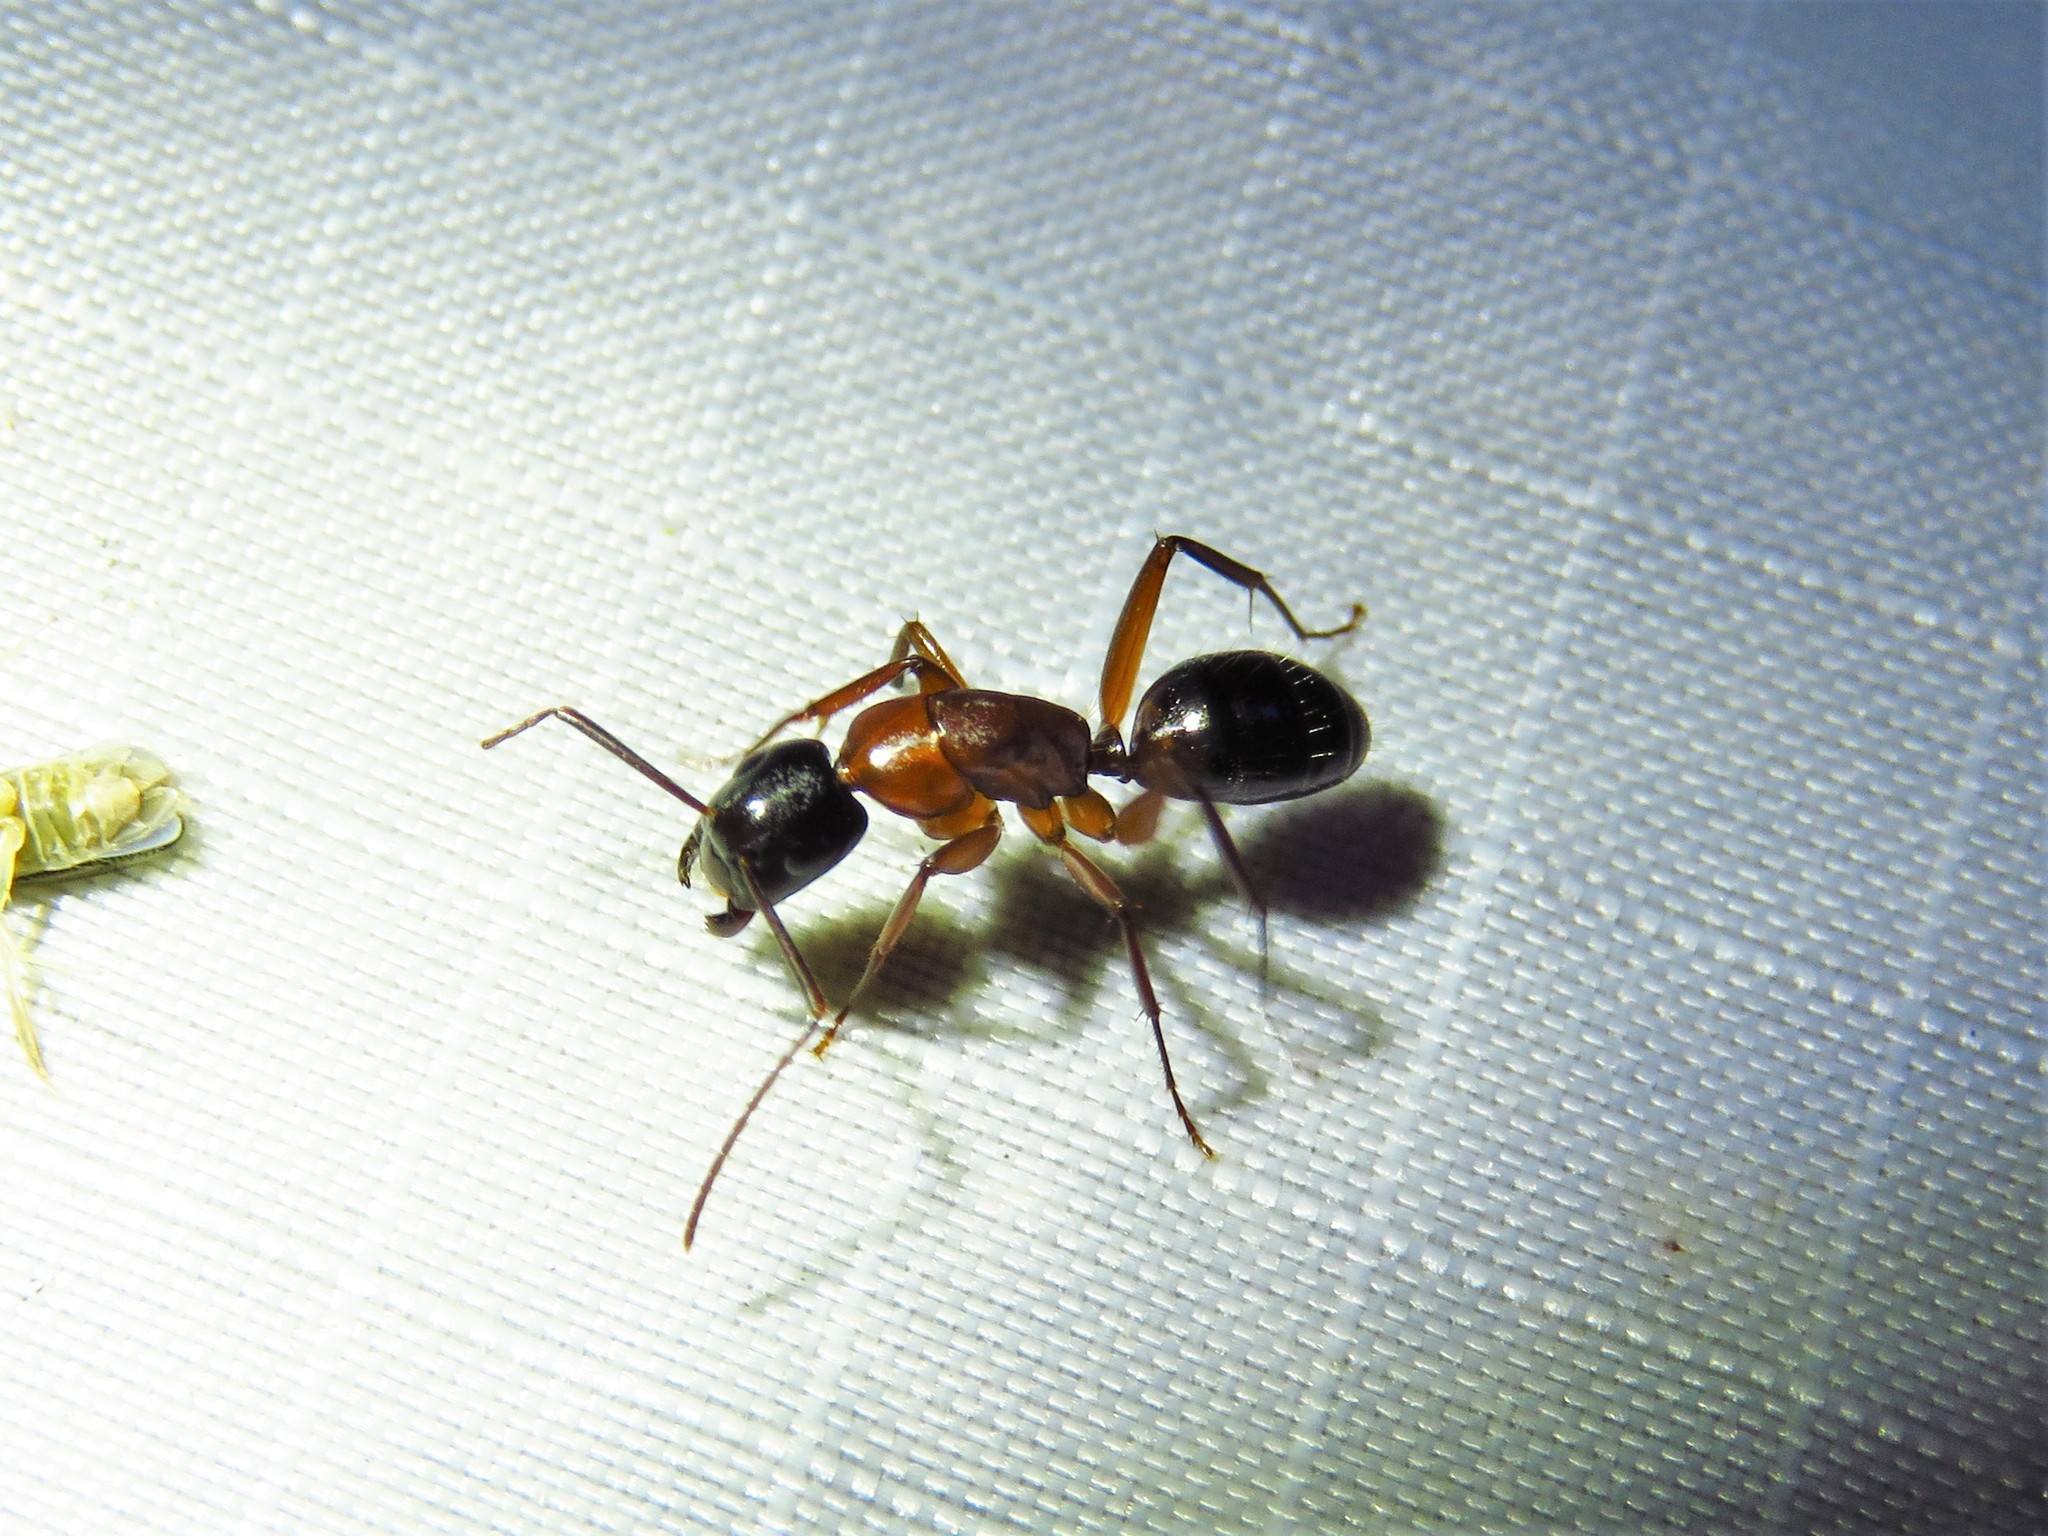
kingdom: Animalia
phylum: Arthropoda
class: Insecta
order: Hymenoptera
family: Formicidae
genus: Camponotus
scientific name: Camponotus texanus
